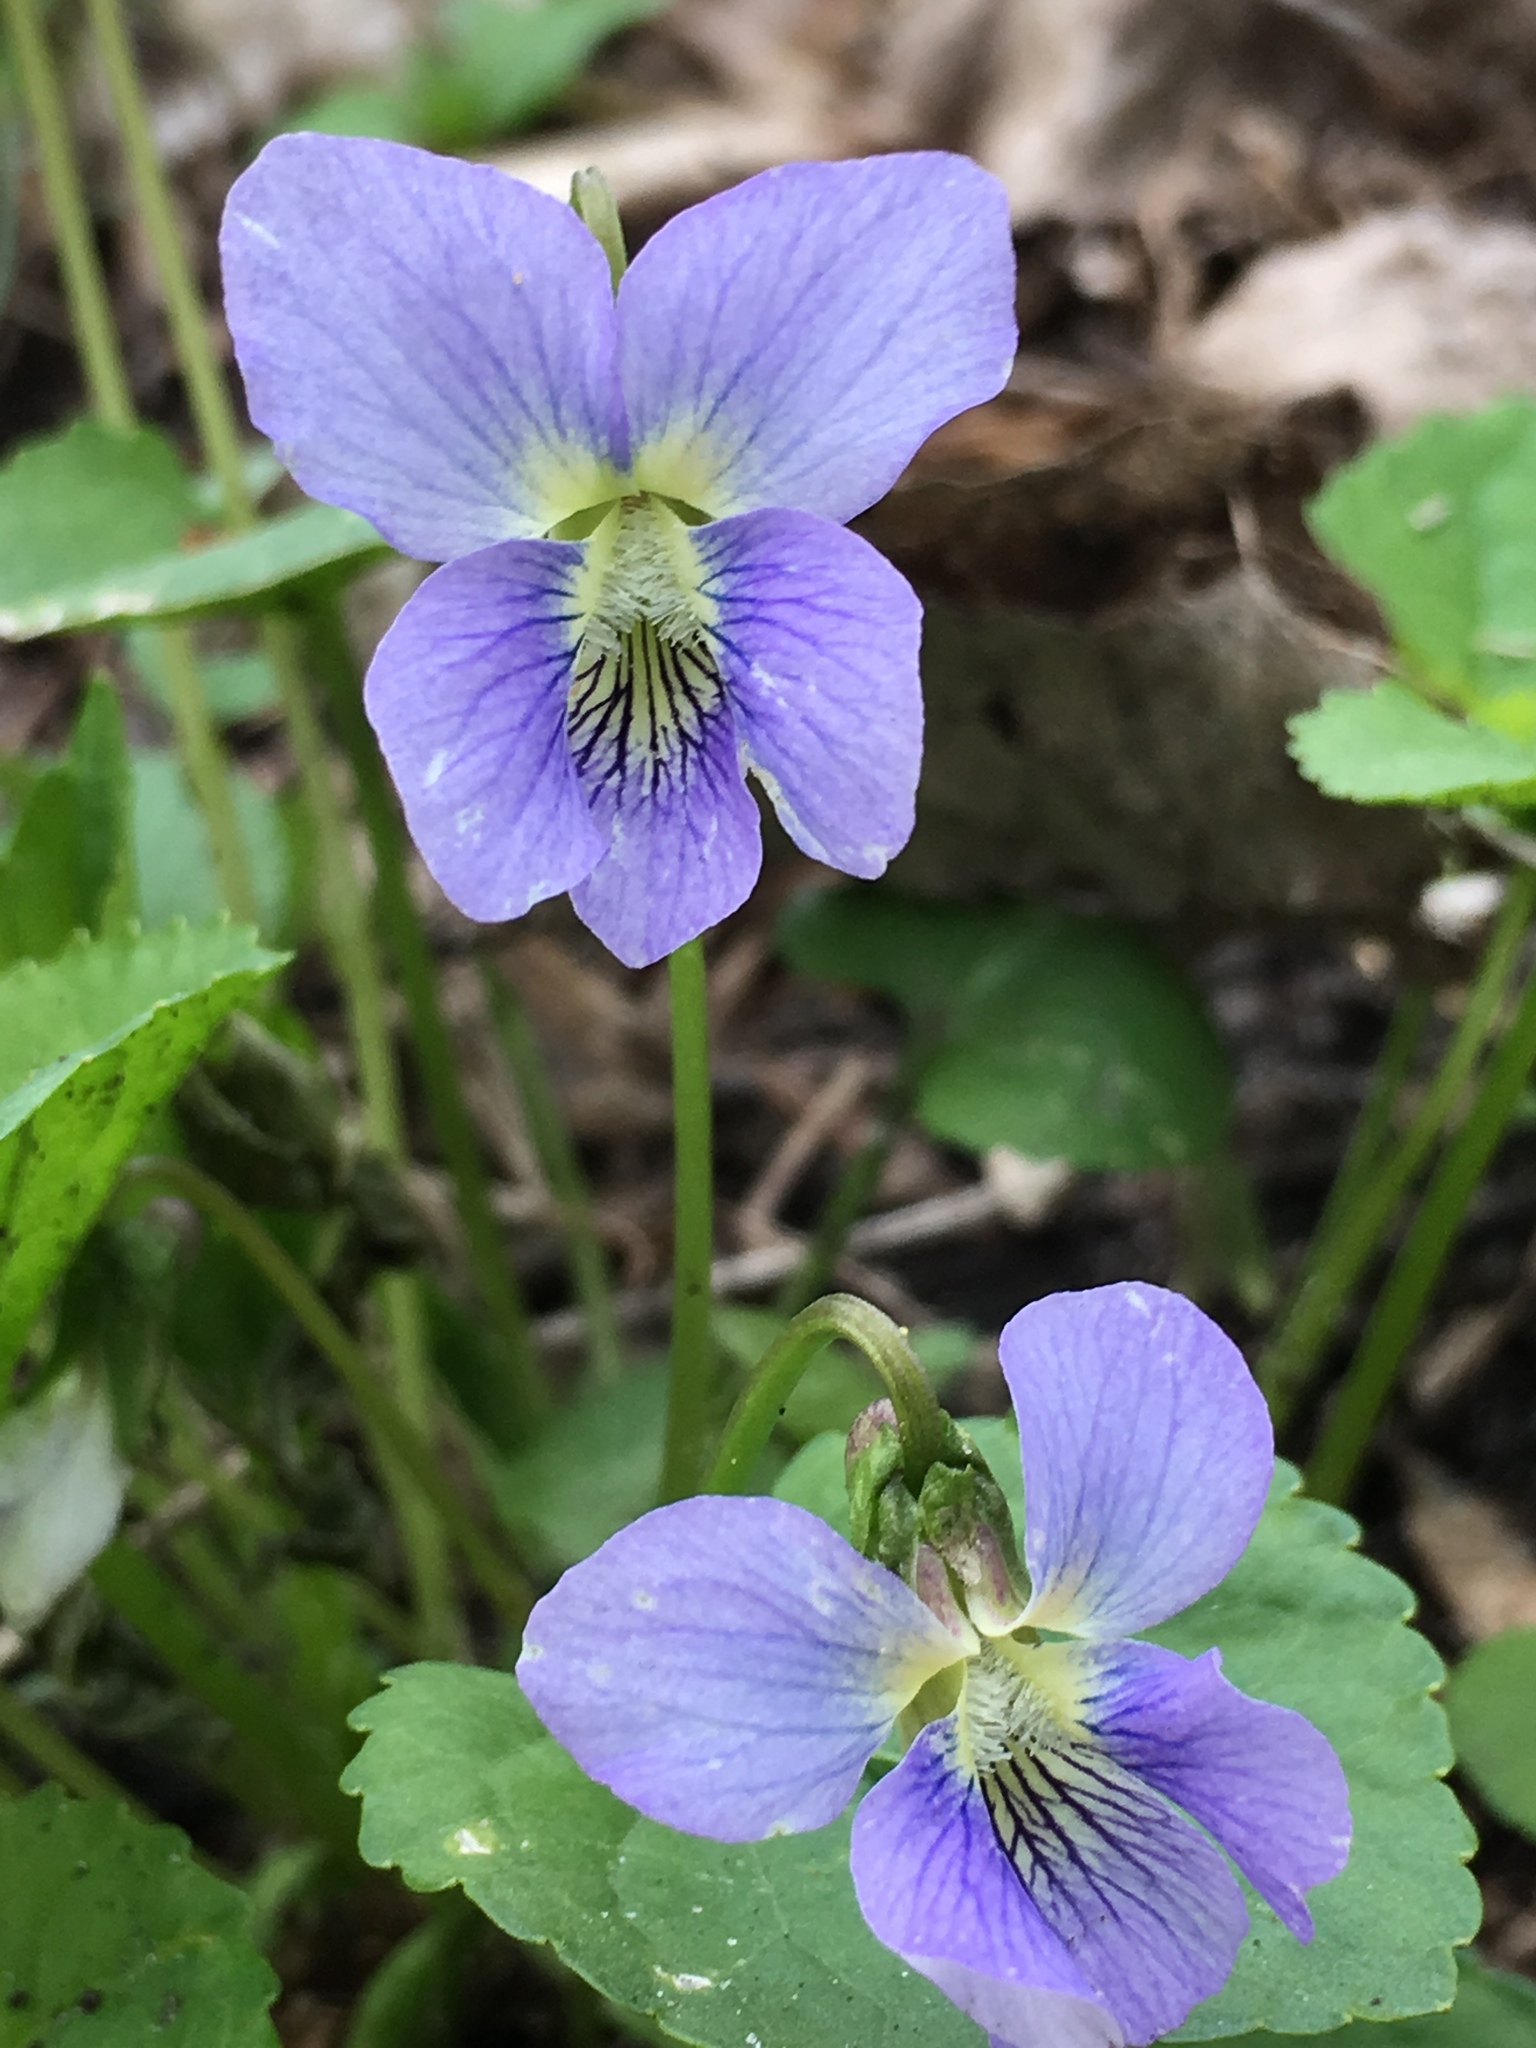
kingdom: Plantae
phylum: Tracheophyta
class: Magnoliopsida
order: Malpighiales
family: Violaceae
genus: Viola
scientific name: Viola sororia
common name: Dooryard violet
